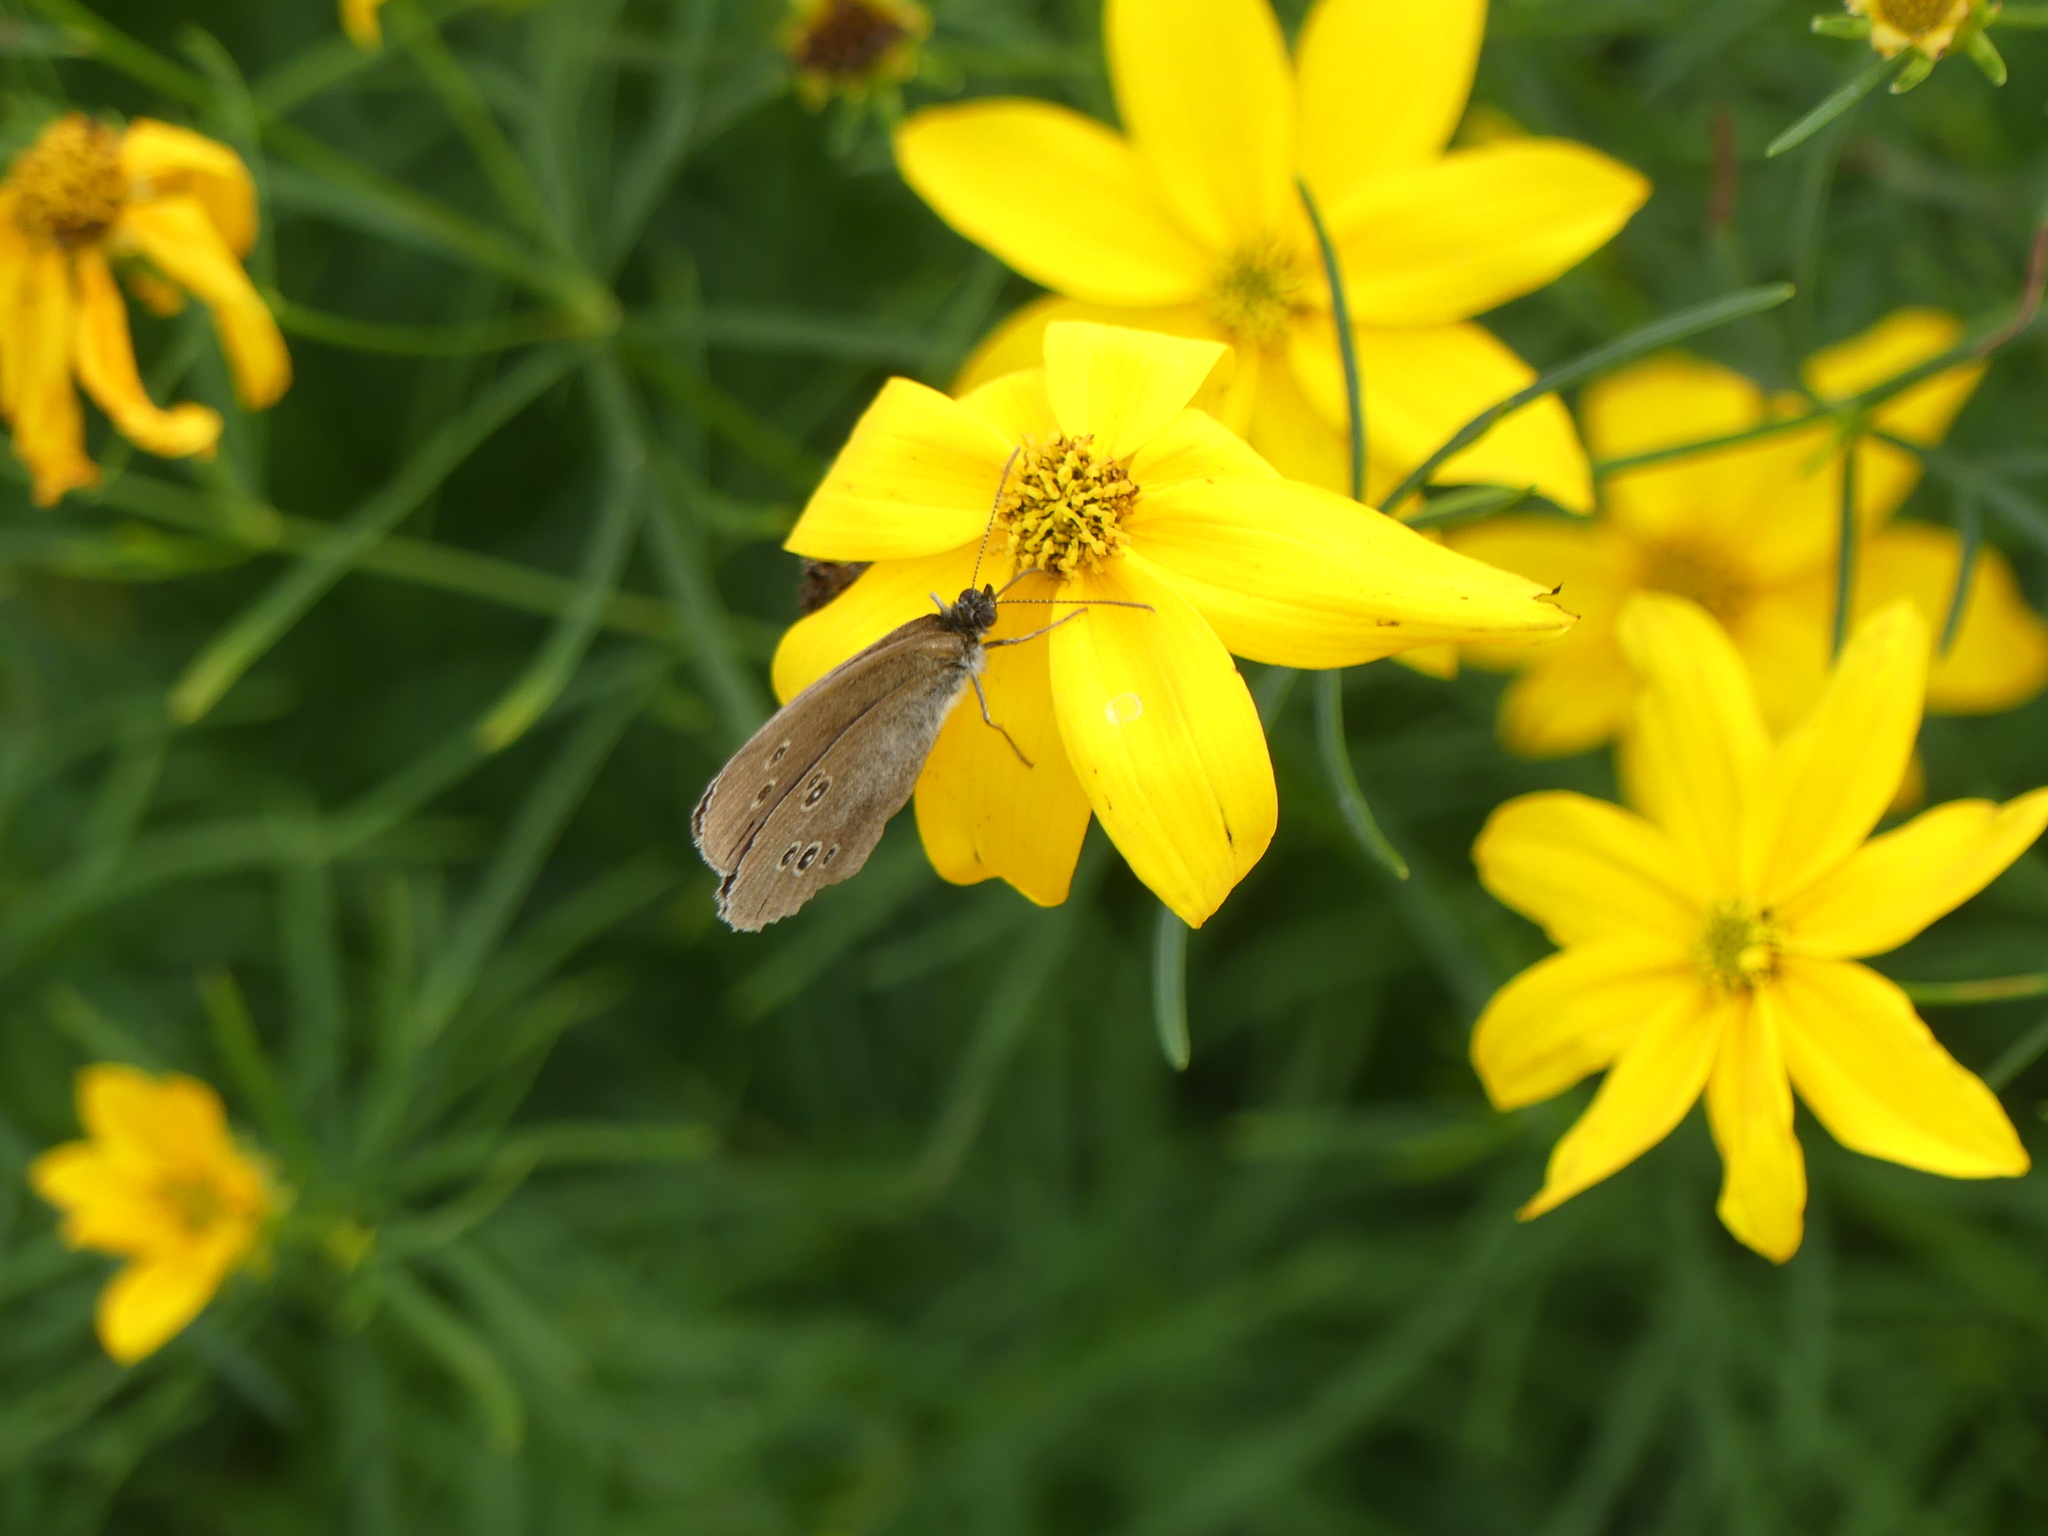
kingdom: Animalia
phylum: Arthropoda
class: Insecta
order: Lepidoptera
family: Nymphalidae
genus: Aphantopus
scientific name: Aphantopus hyperantus
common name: Ringlet
